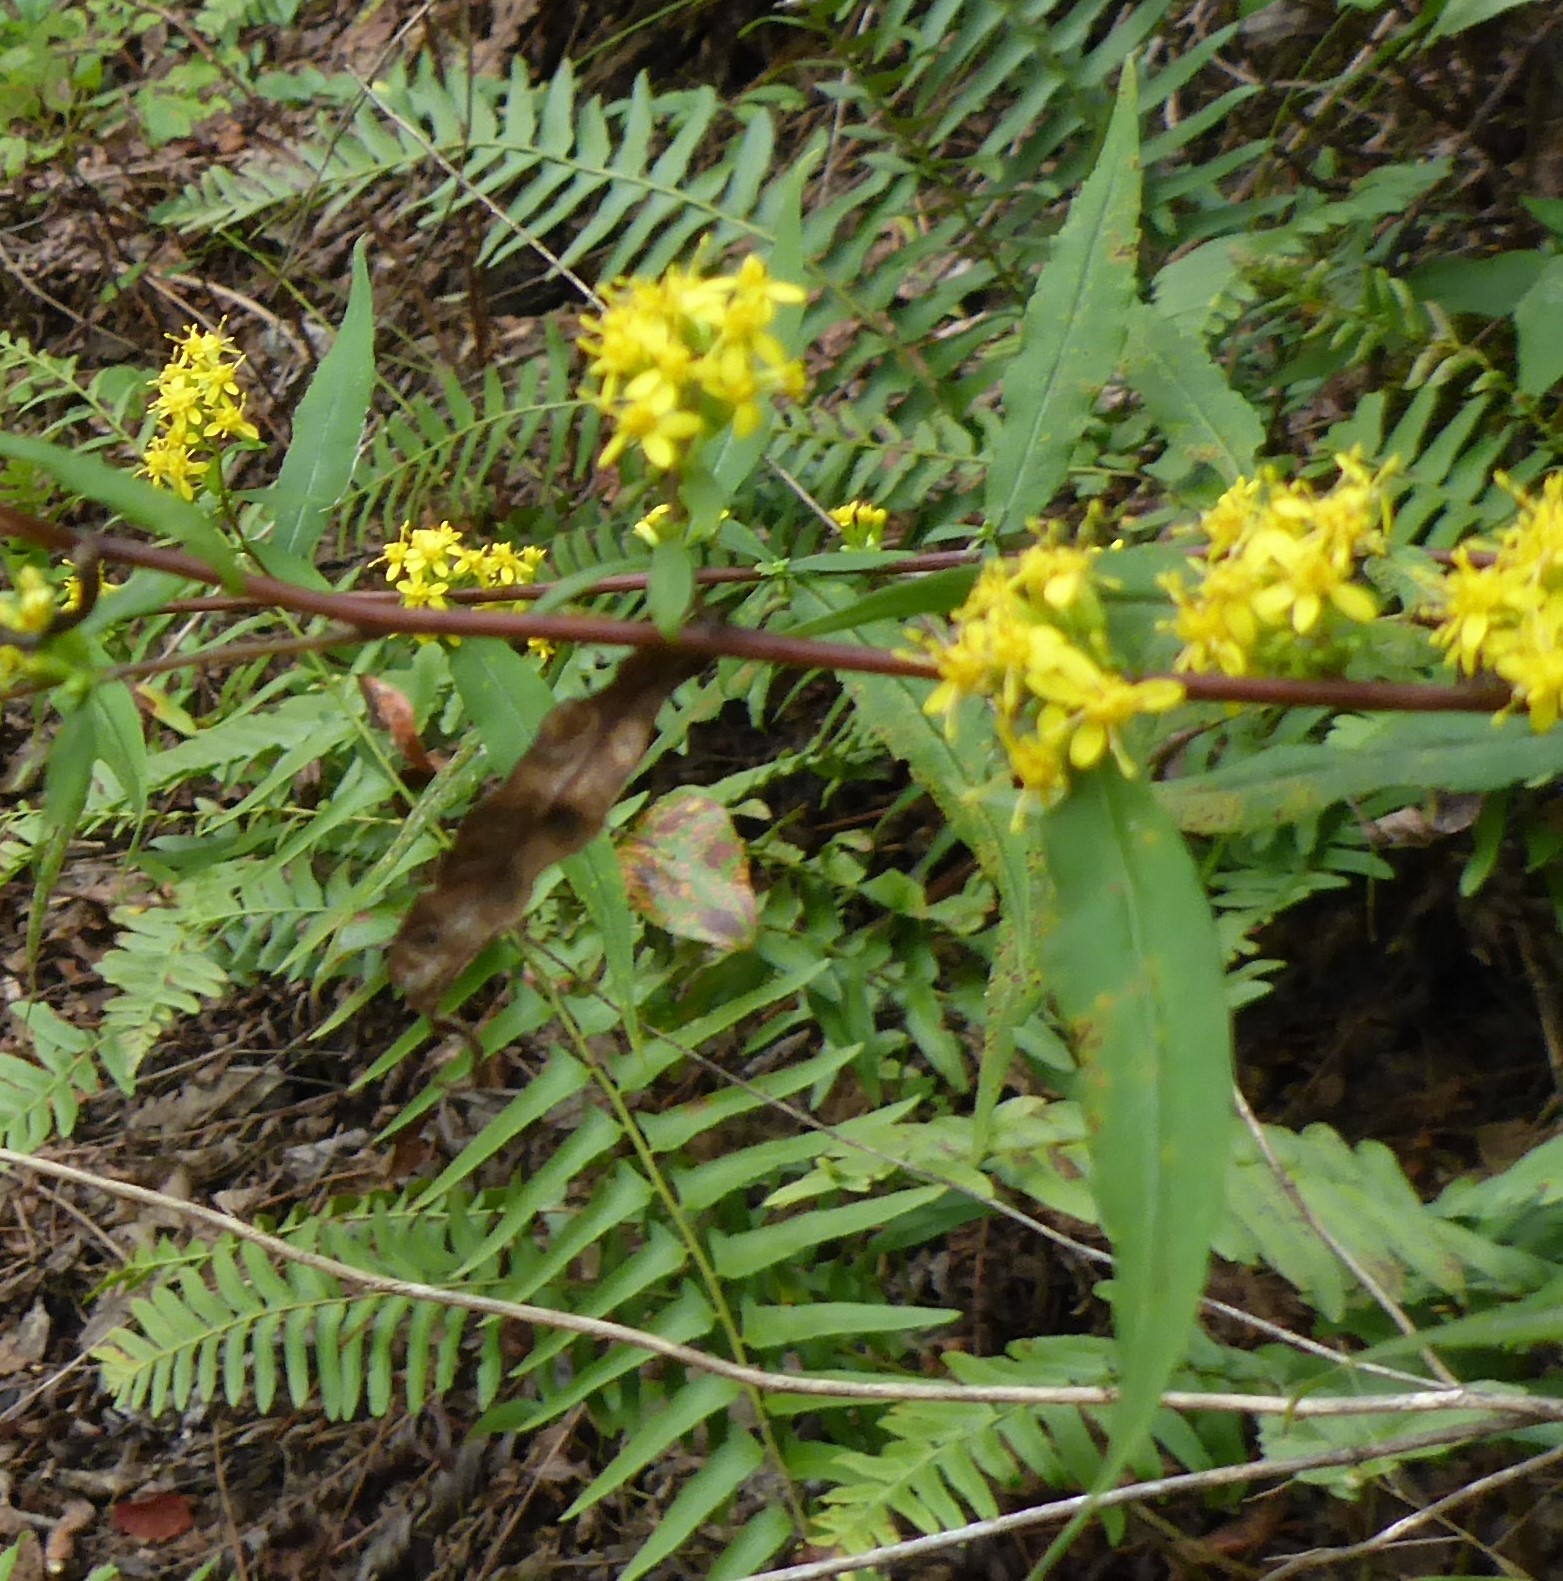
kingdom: Plantae
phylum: Tracheophyta
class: Magnoliopsida
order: Asterales
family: Asteraceae
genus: Solidago
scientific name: Solidago caesia
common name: Woodland goldenrod
